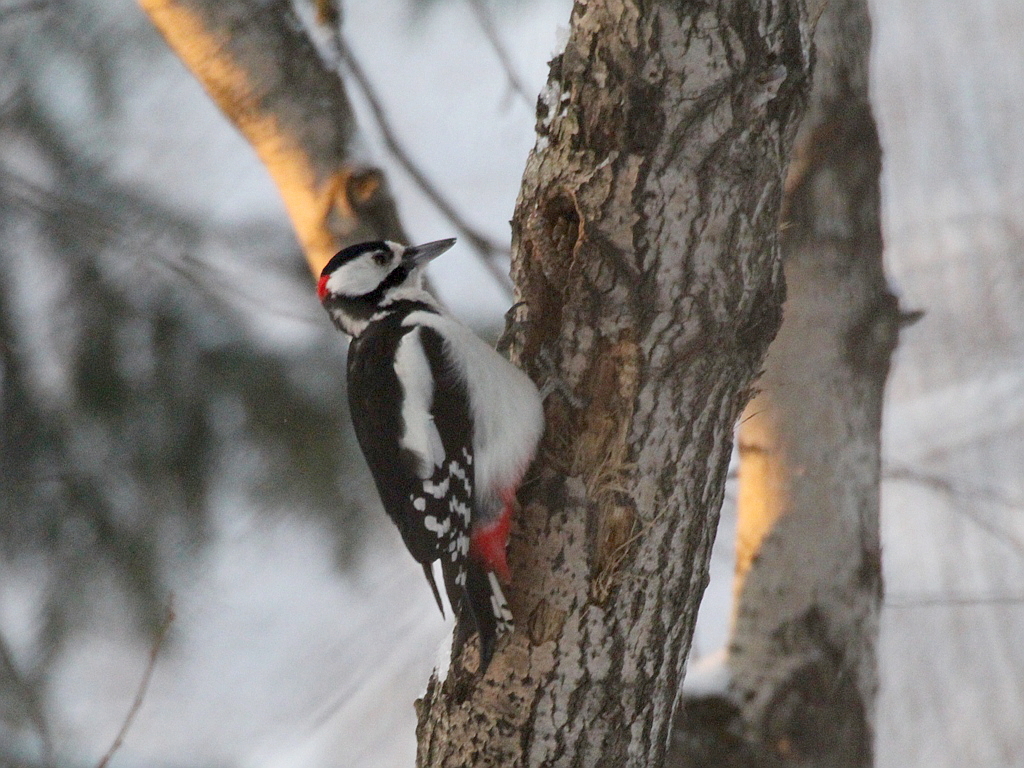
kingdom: Animalia
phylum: Chordata
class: Aves
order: Piciformes
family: Picidae
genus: Dendrocopos
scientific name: Dendrocopos major
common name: Great spotted woodpecker
